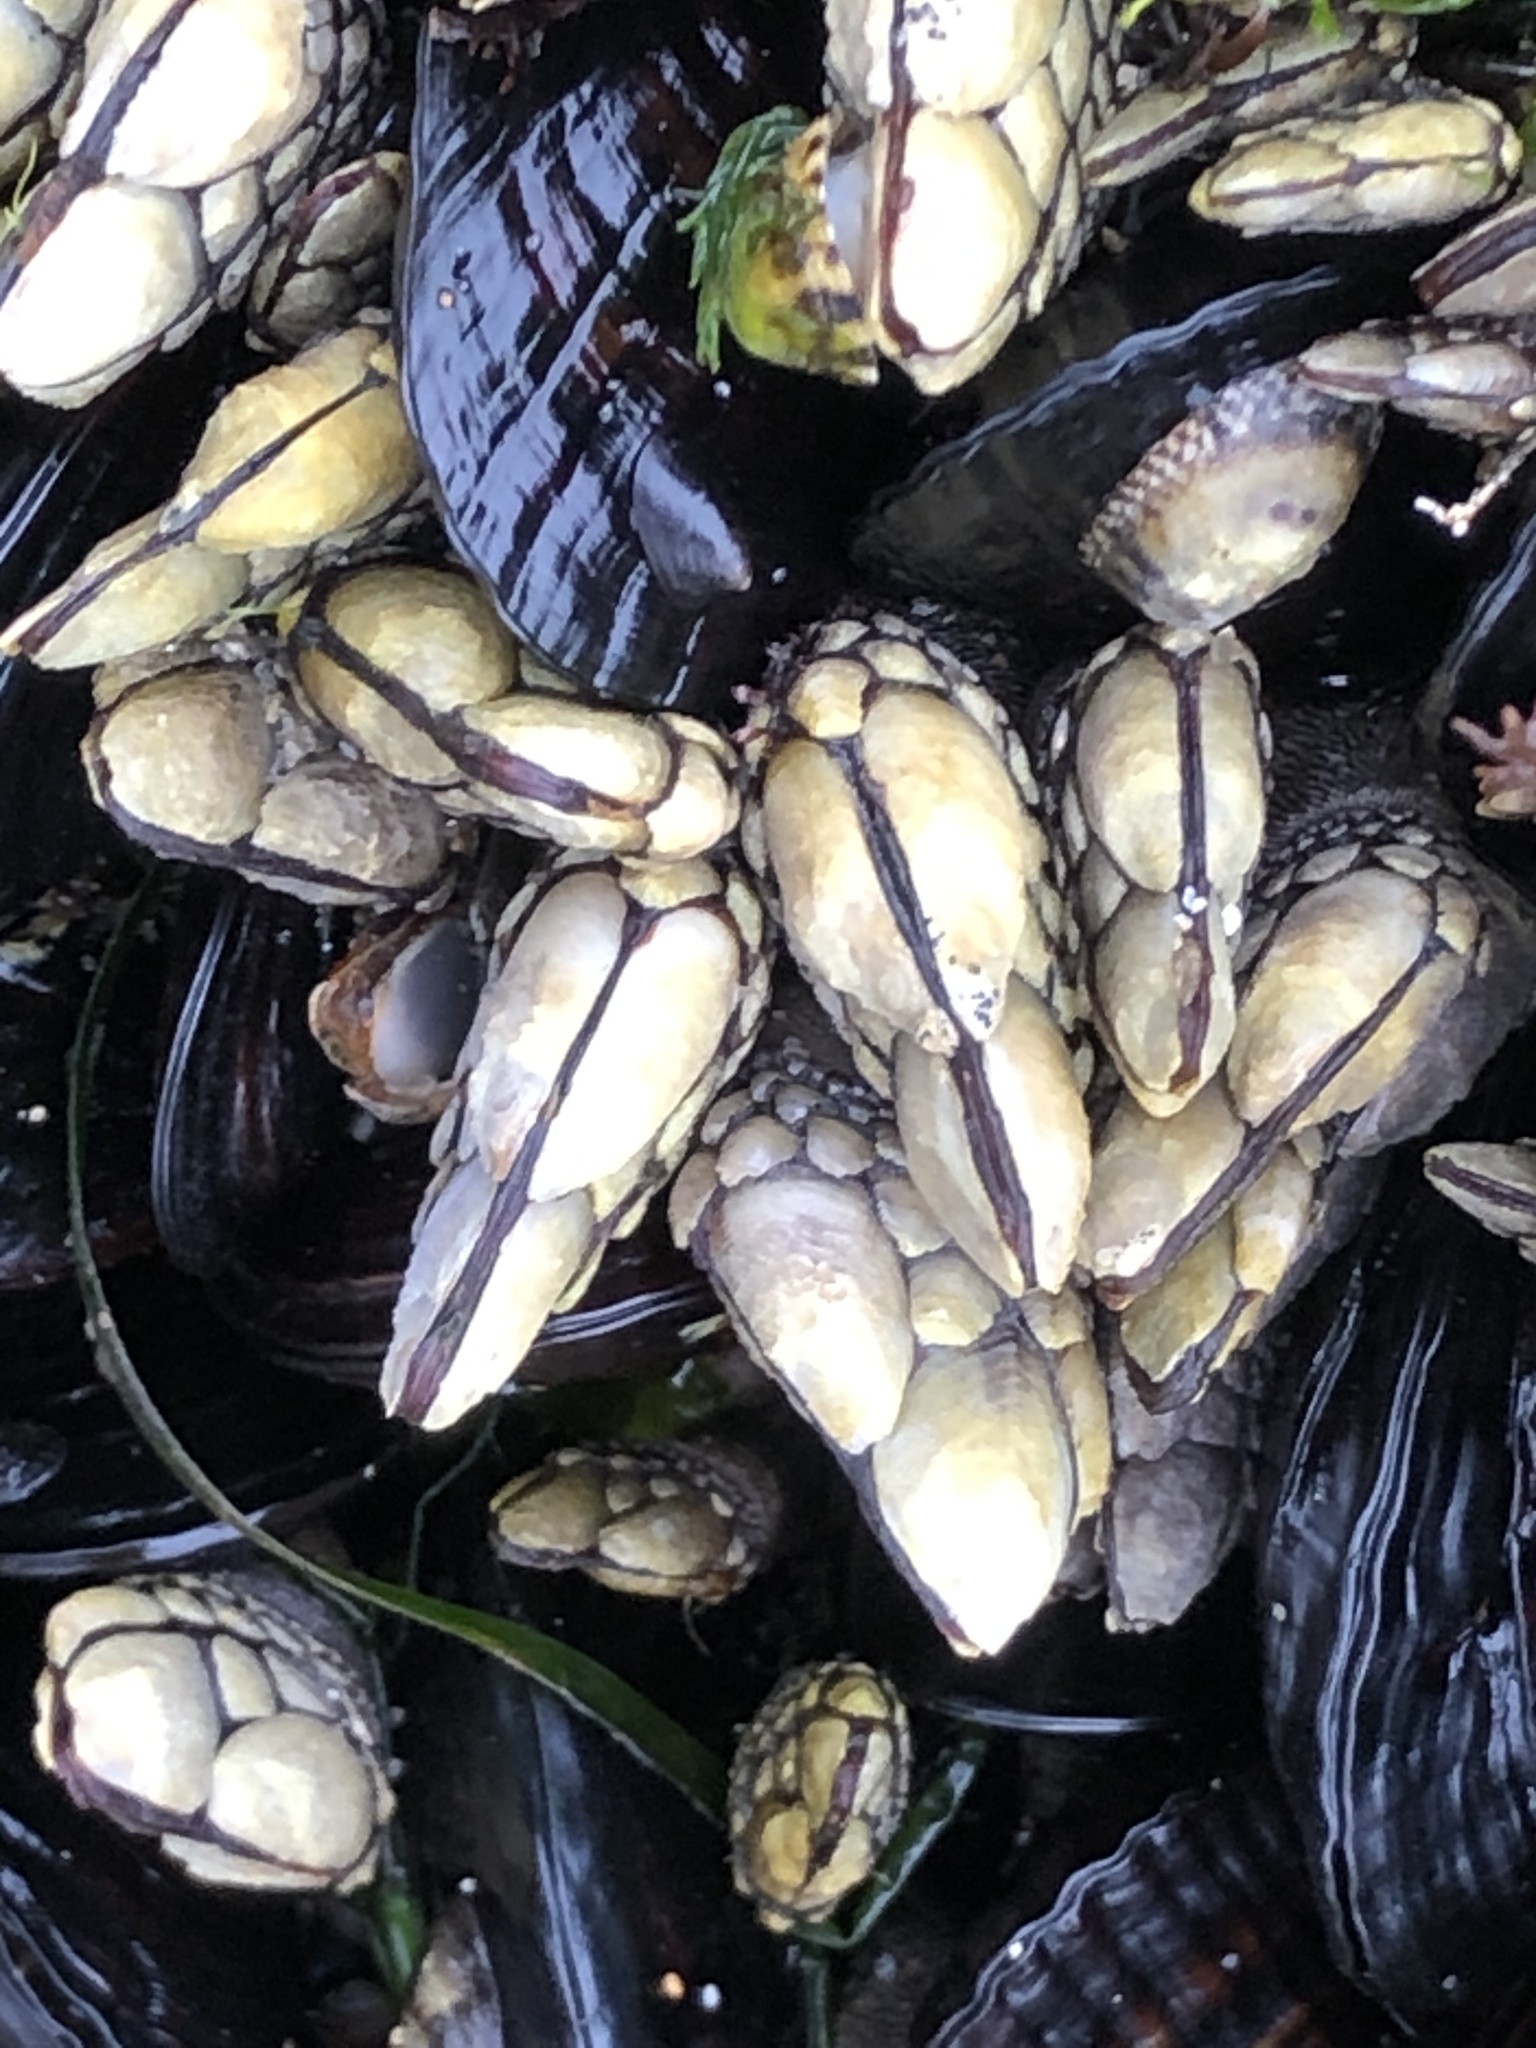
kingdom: Animalia
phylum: Arthropoda
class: Maxillopoda
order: Pedunculata
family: Pollicipedidae
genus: Pollicipes
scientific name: Pollicipes polymerus
